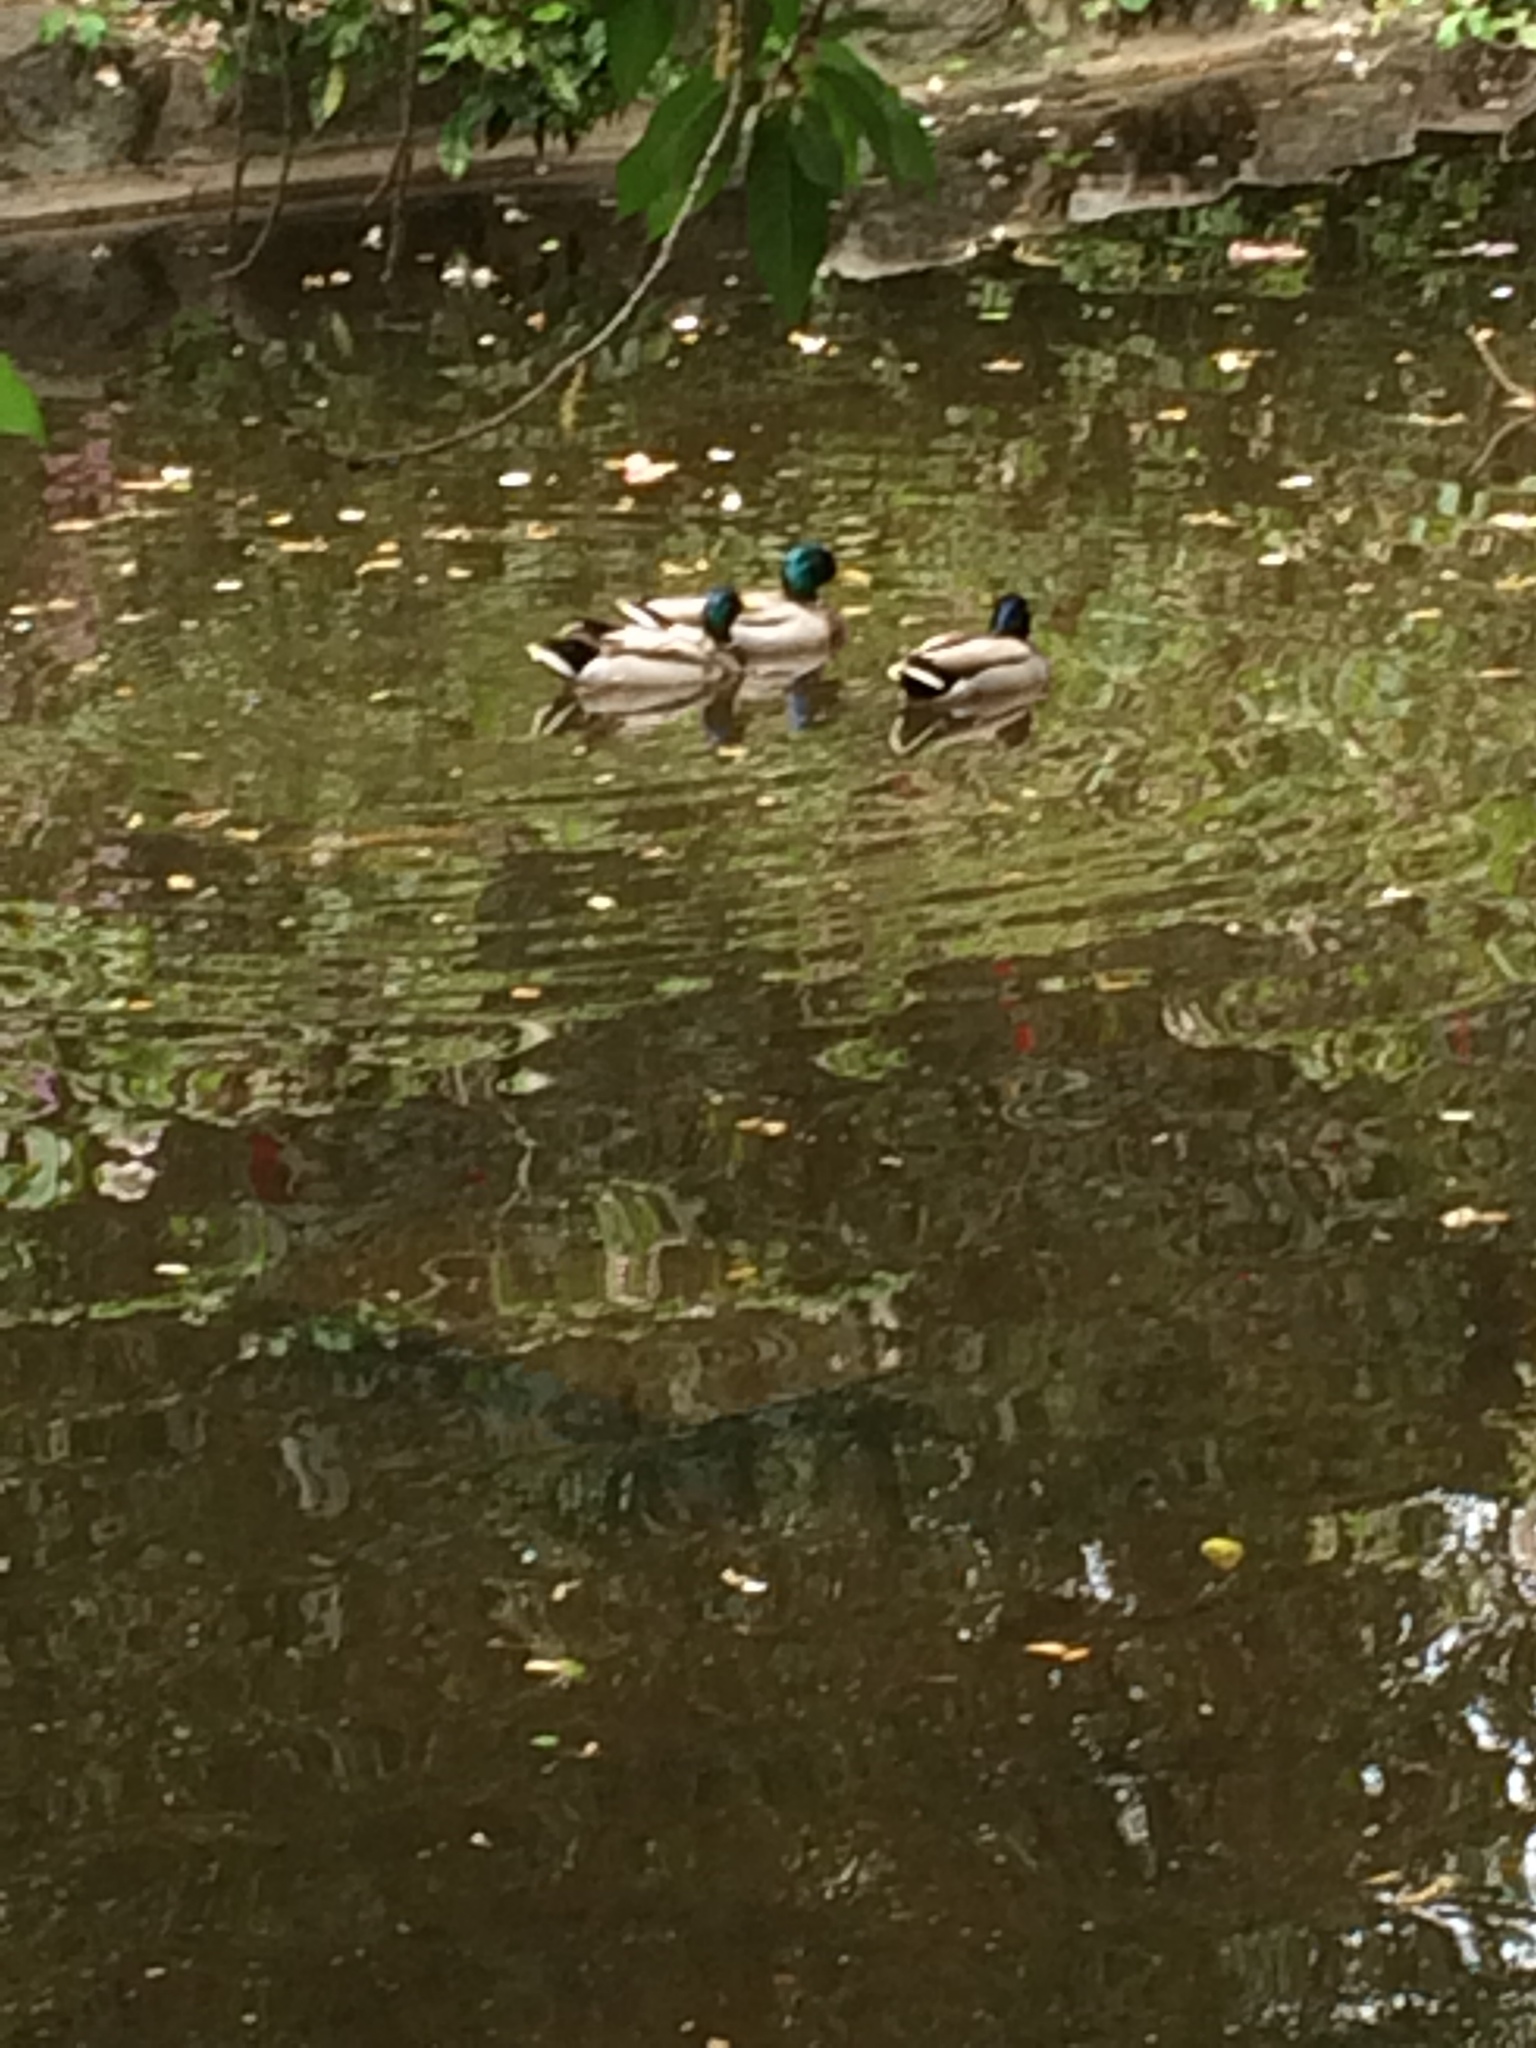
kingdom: Animalia
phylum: Chordata
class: Aves
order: Anseriformes
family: Anatidae
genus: Anas
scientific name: Anas platyrhynchos
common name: Mallard
